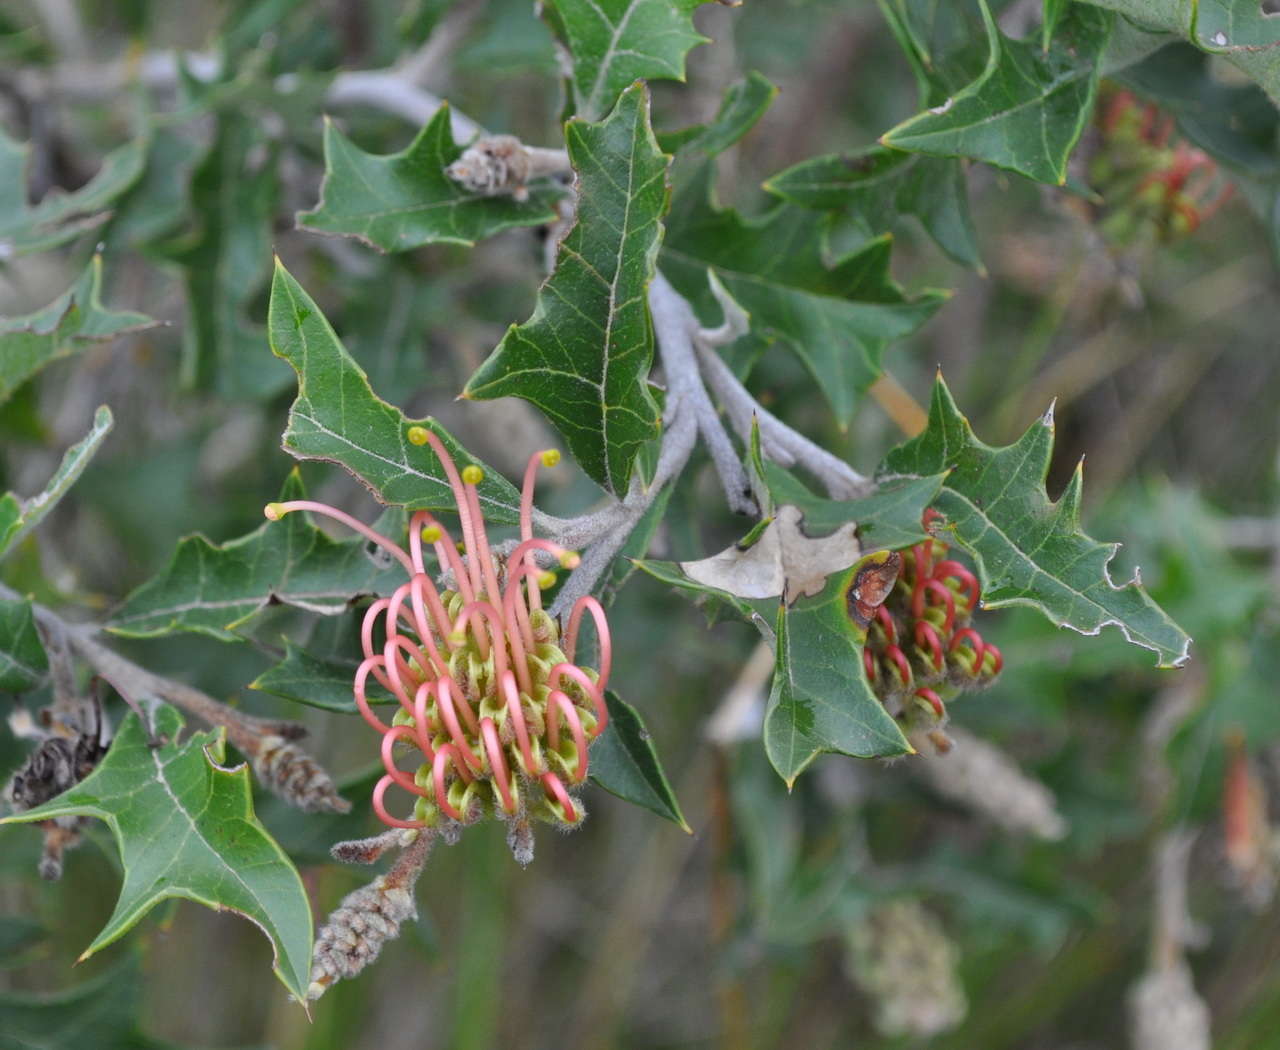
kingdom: Plantae
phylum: Tracheophyta
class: Magnoliopsida
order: Proteales
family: Proteaceae
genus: Grevillea
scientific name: Grevillea aquifolium
